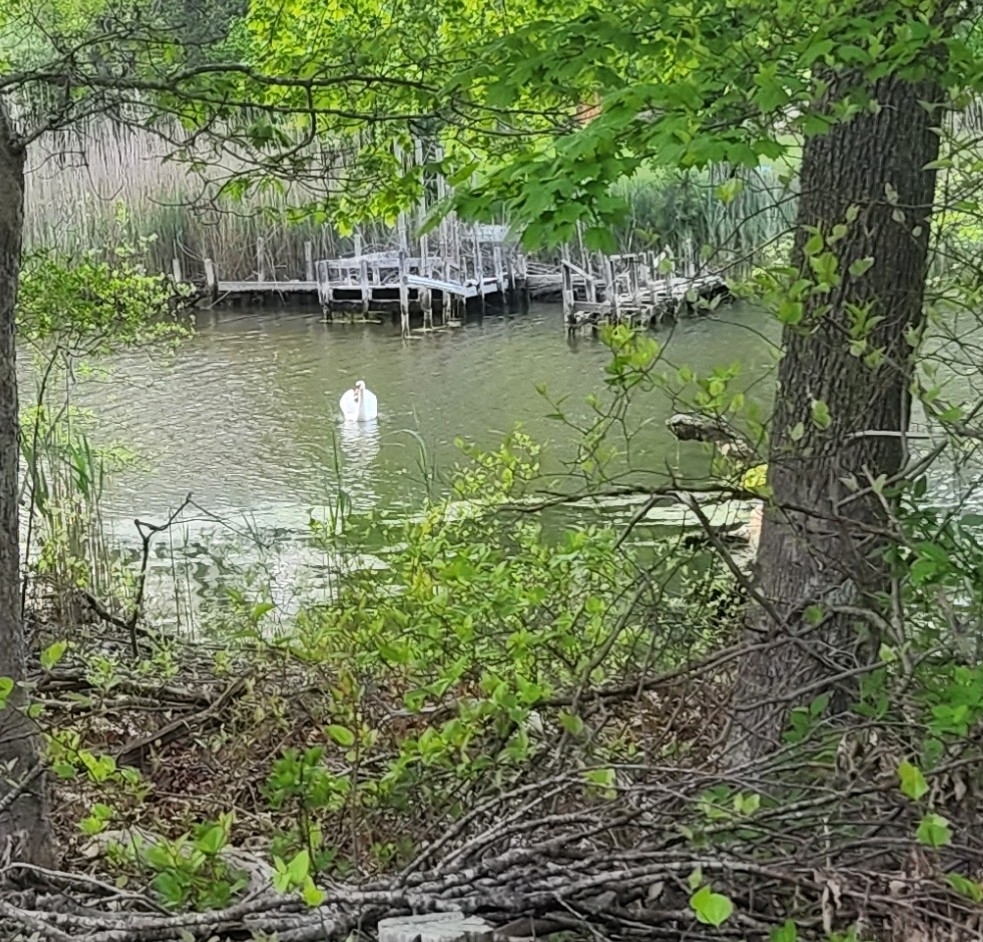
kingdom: Animalia
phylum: Chordata
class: Aves
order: Anseriformes
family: Anatidae
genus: Cygnus
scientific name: Cygnus olor
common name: Mute swan
